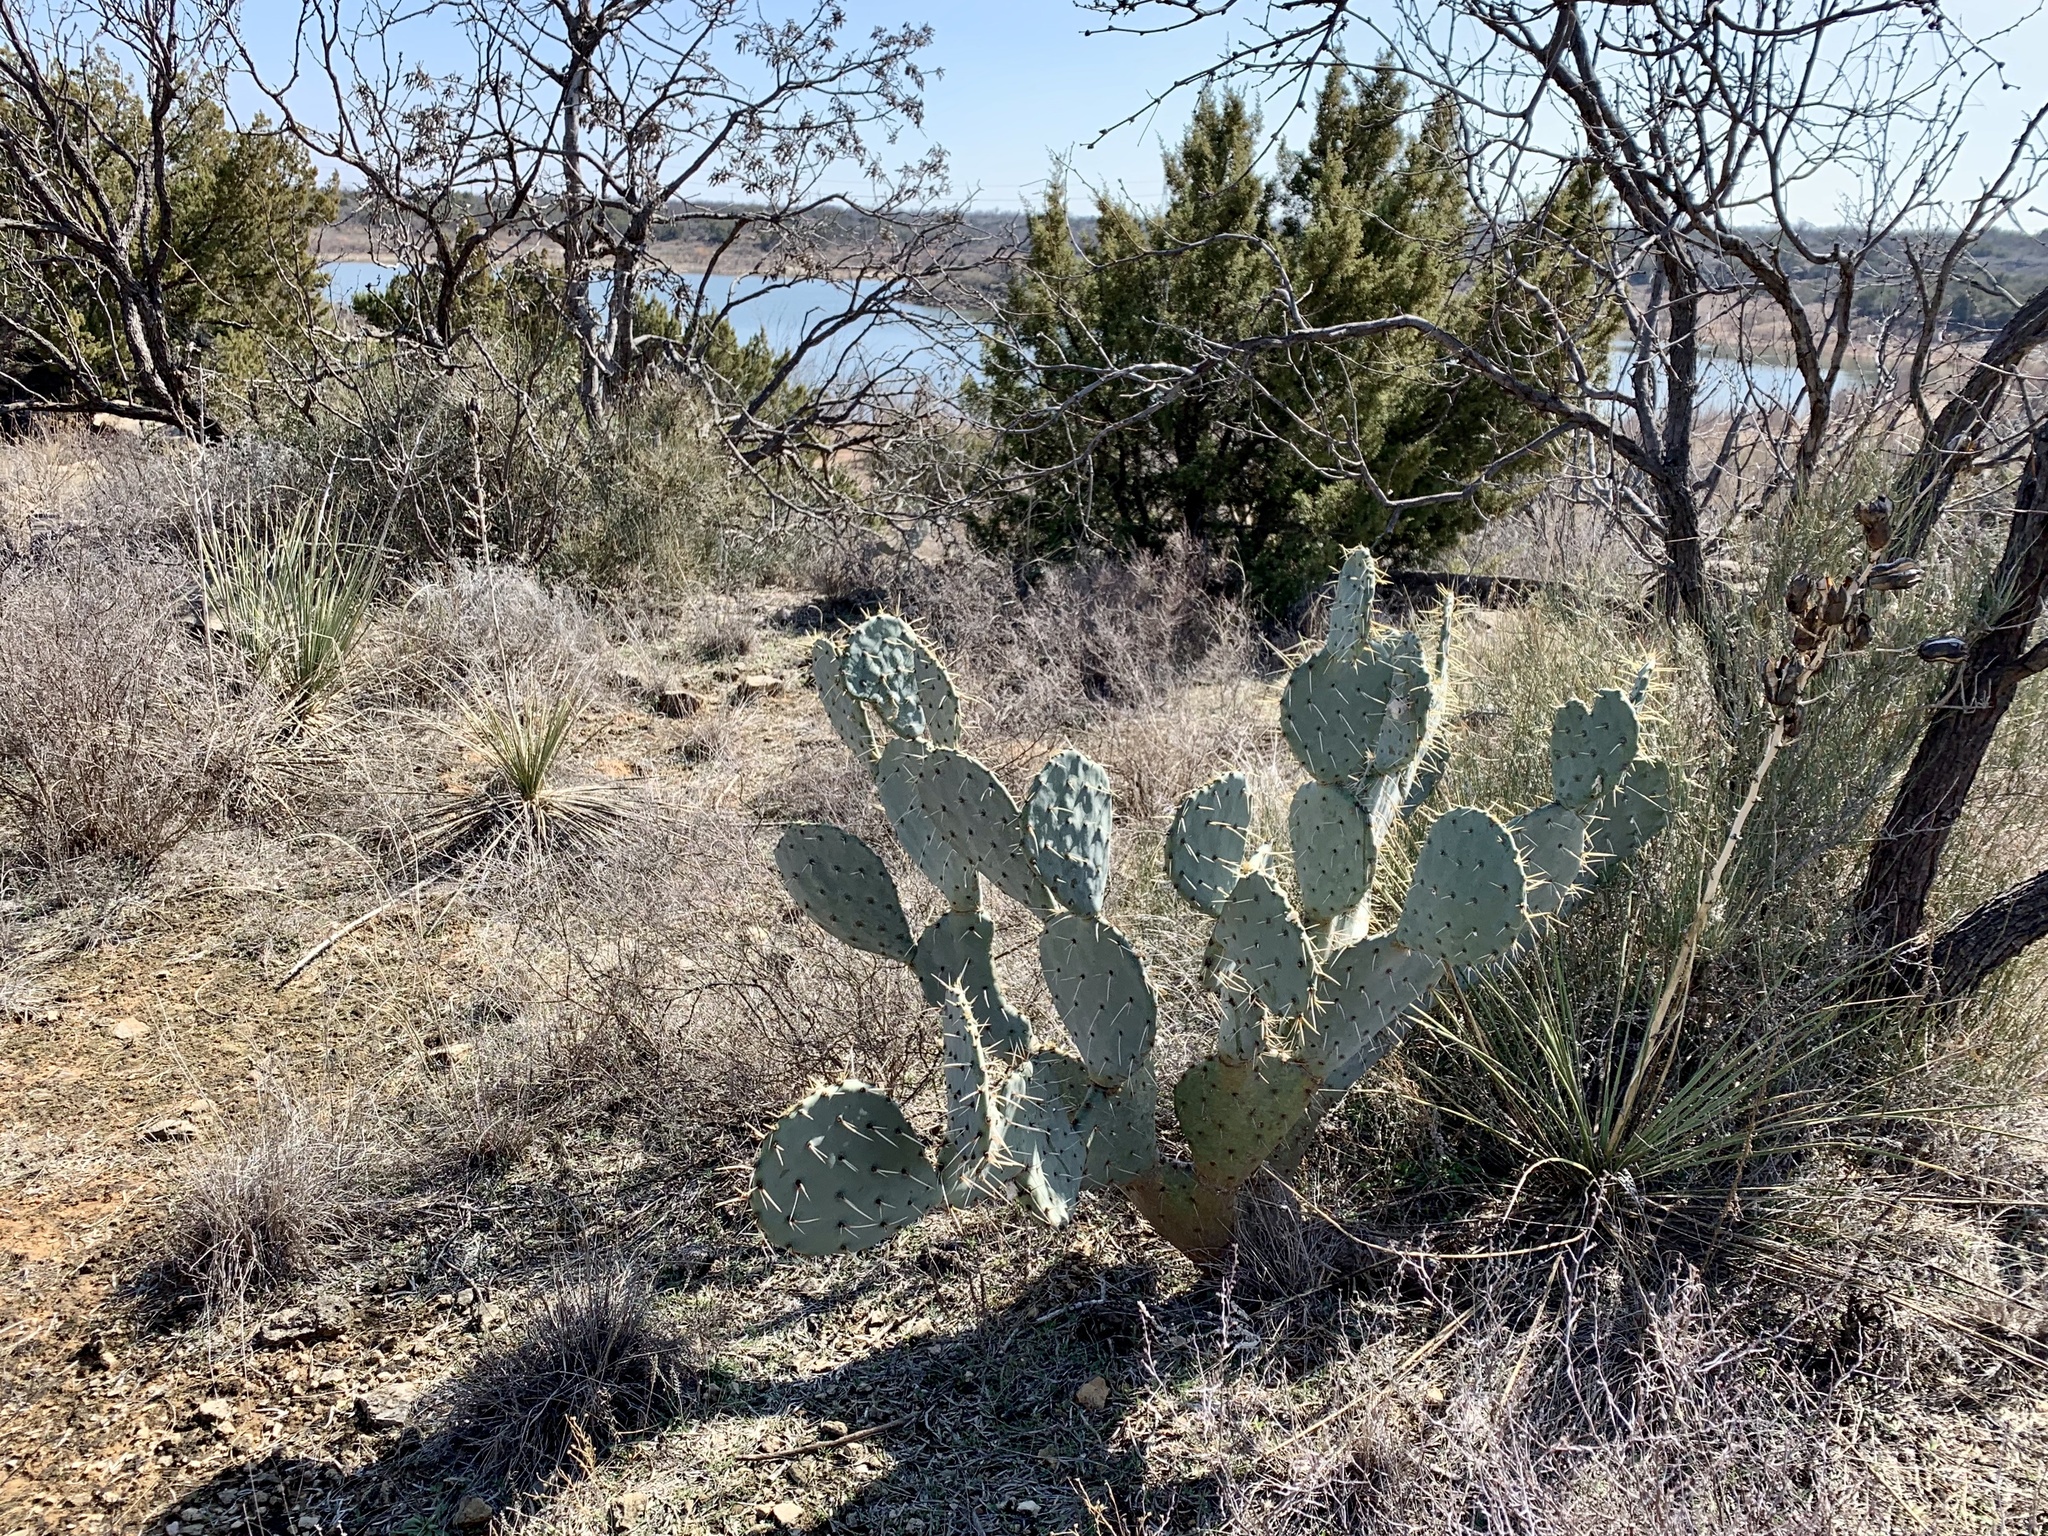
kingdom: Plantae
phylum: Tracheophyta
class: Magnoliopsida
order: Caryophyllales
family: Cactaceae
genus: Opuntia
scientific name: Opuntia engelmannii
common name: Cactus-apple
